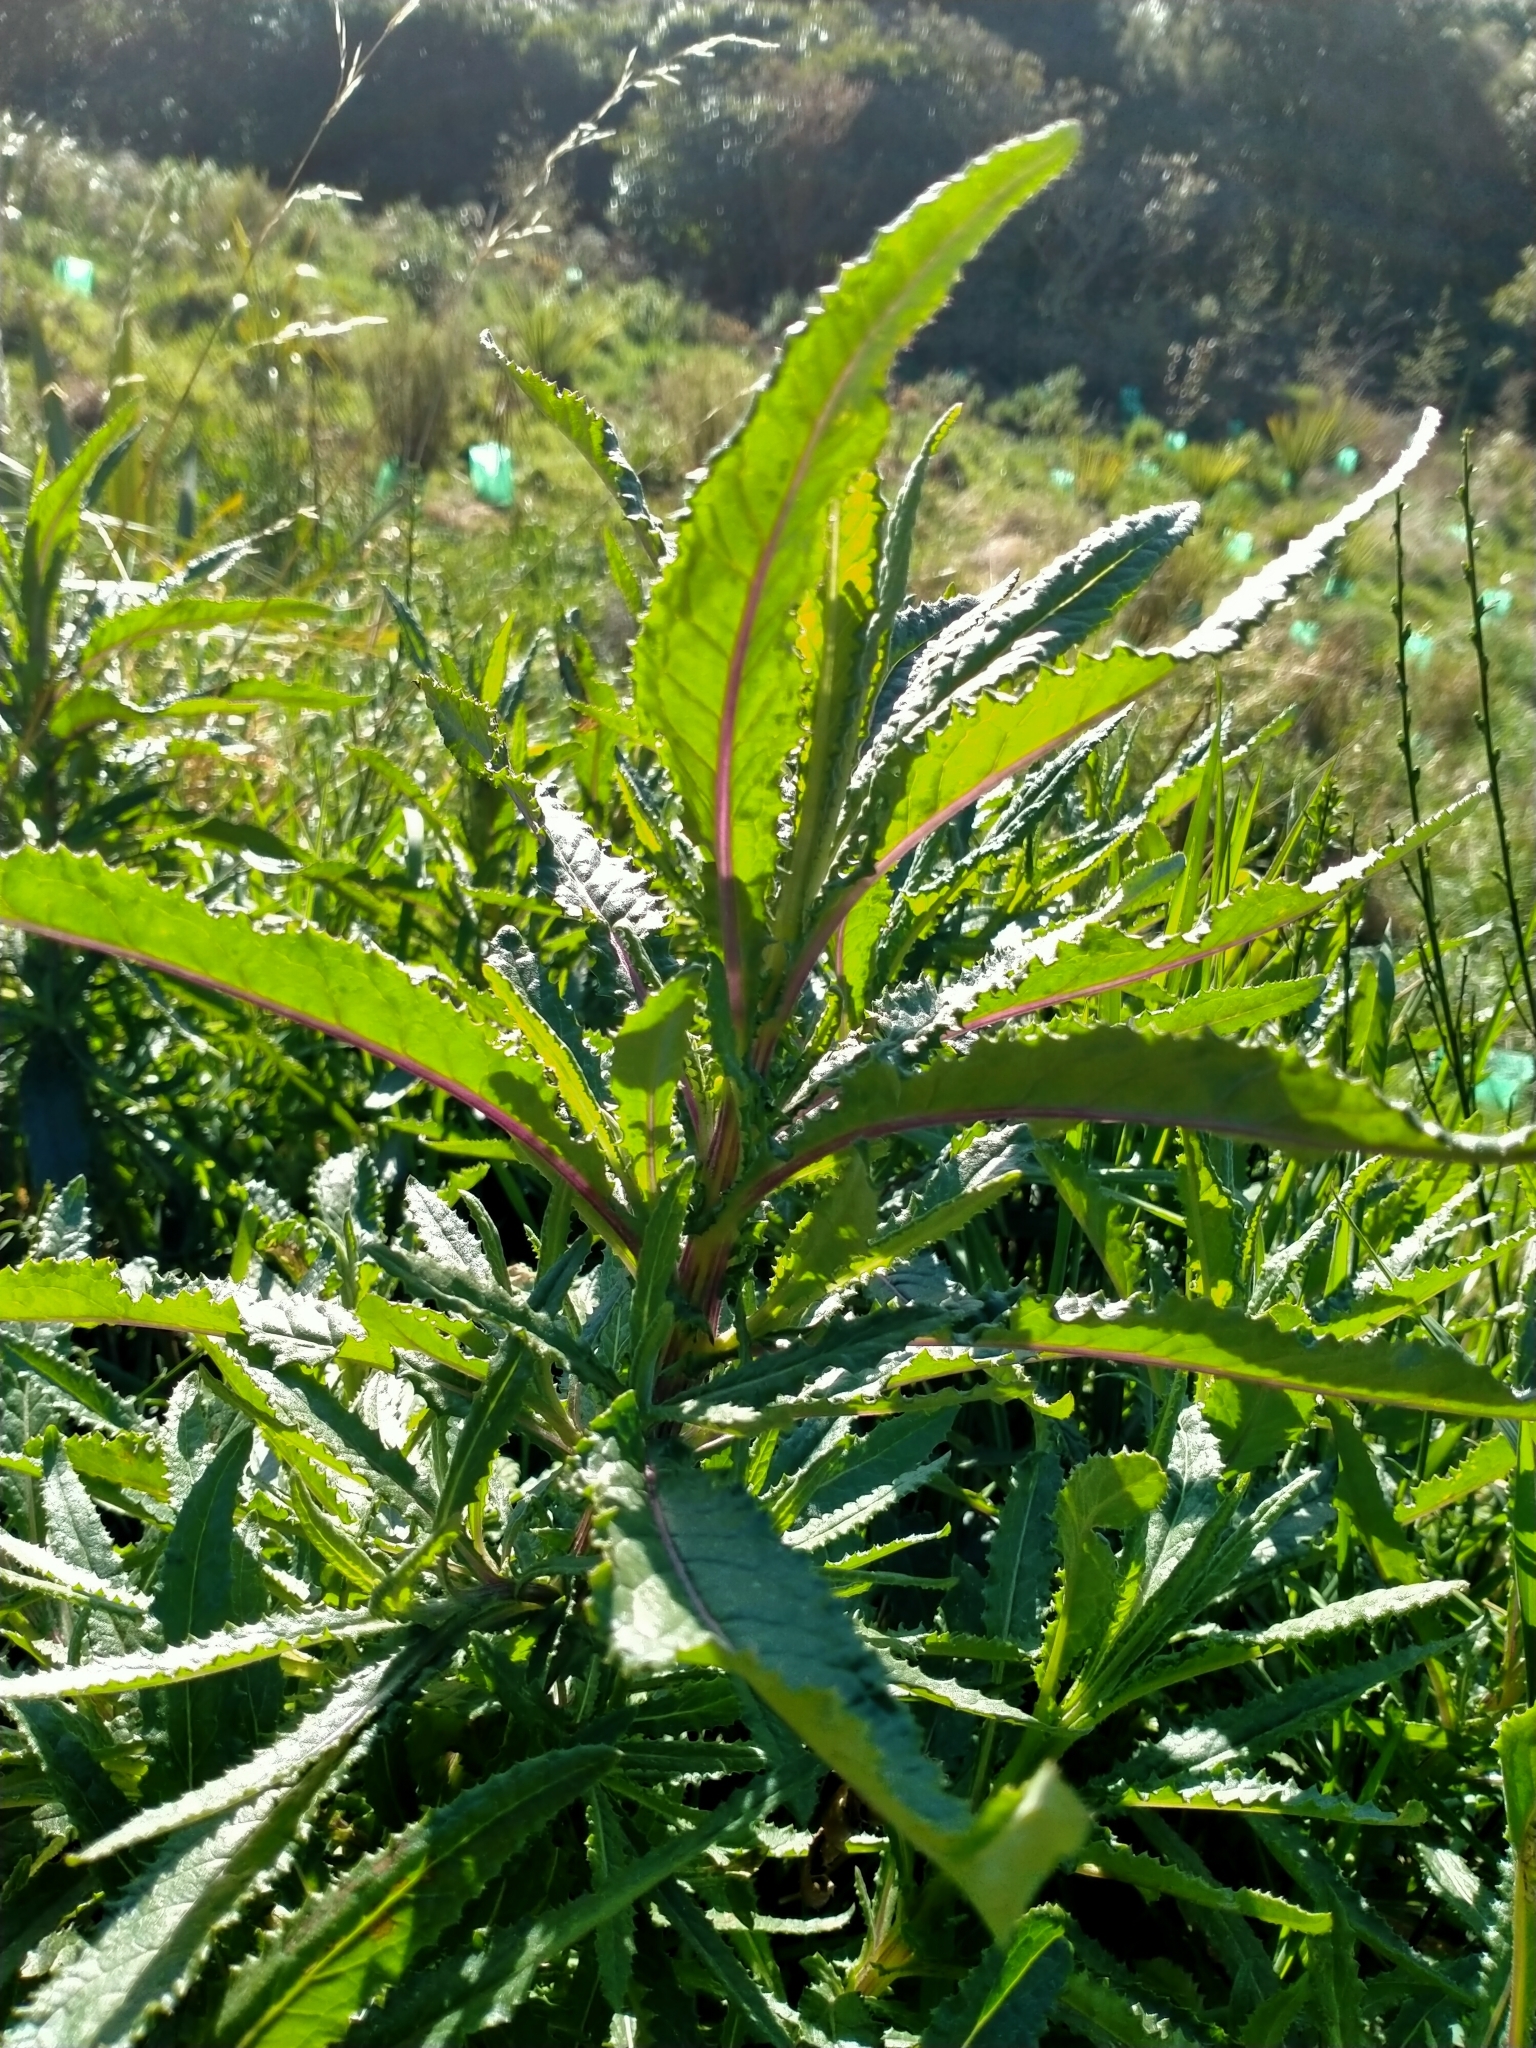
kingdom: Plantae
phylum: Tracheophyta
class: Magnoliopsida
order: Asterales
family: Asteraceae
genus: Senecio
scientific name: Senecio minimus
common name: Toothed fireweed
